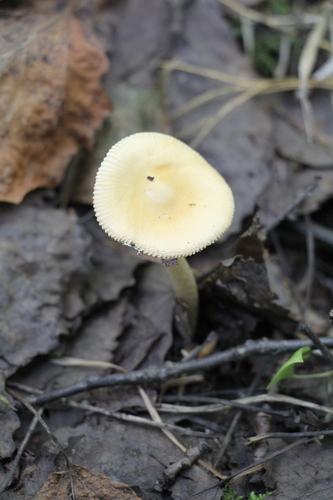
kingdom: Fungi
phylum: Basidiomycota
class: Agaricomycetes
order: Agaricales
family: Amanitaceae
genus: Amanita
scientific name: Amanita crocea
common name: Orange grisette
